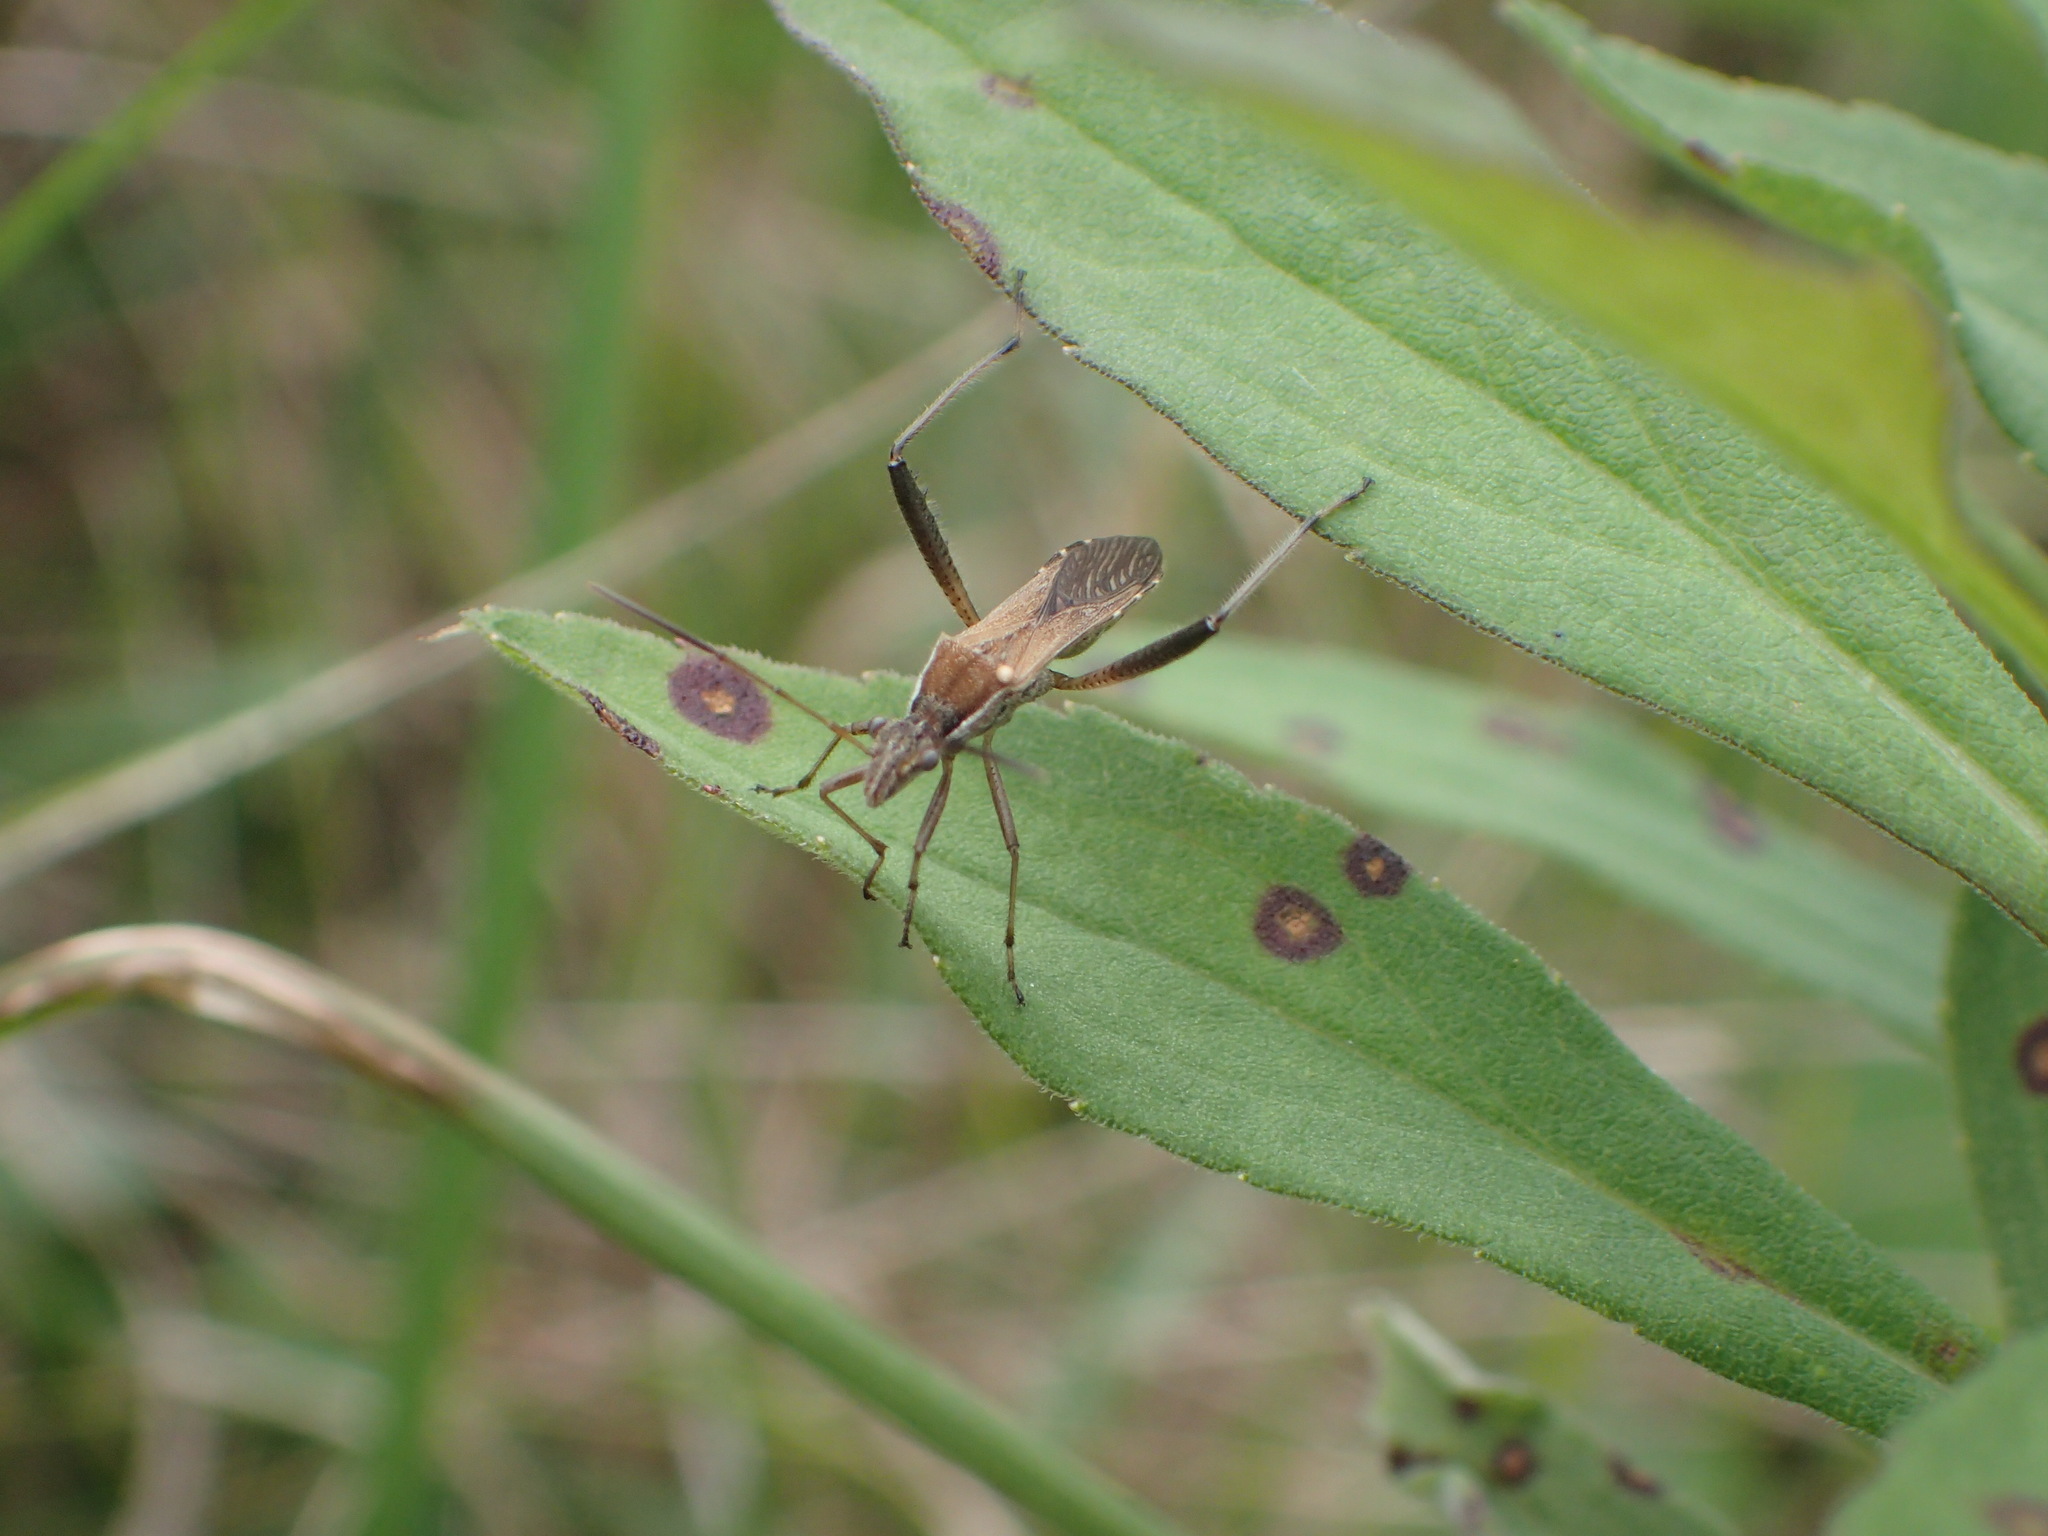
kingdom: Animalia
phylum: Arthropoda
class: Insecta
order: Hemiptera
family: Alydidae
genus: Alydus
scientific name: Alydus pilosulus
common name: Broad-headed bug
